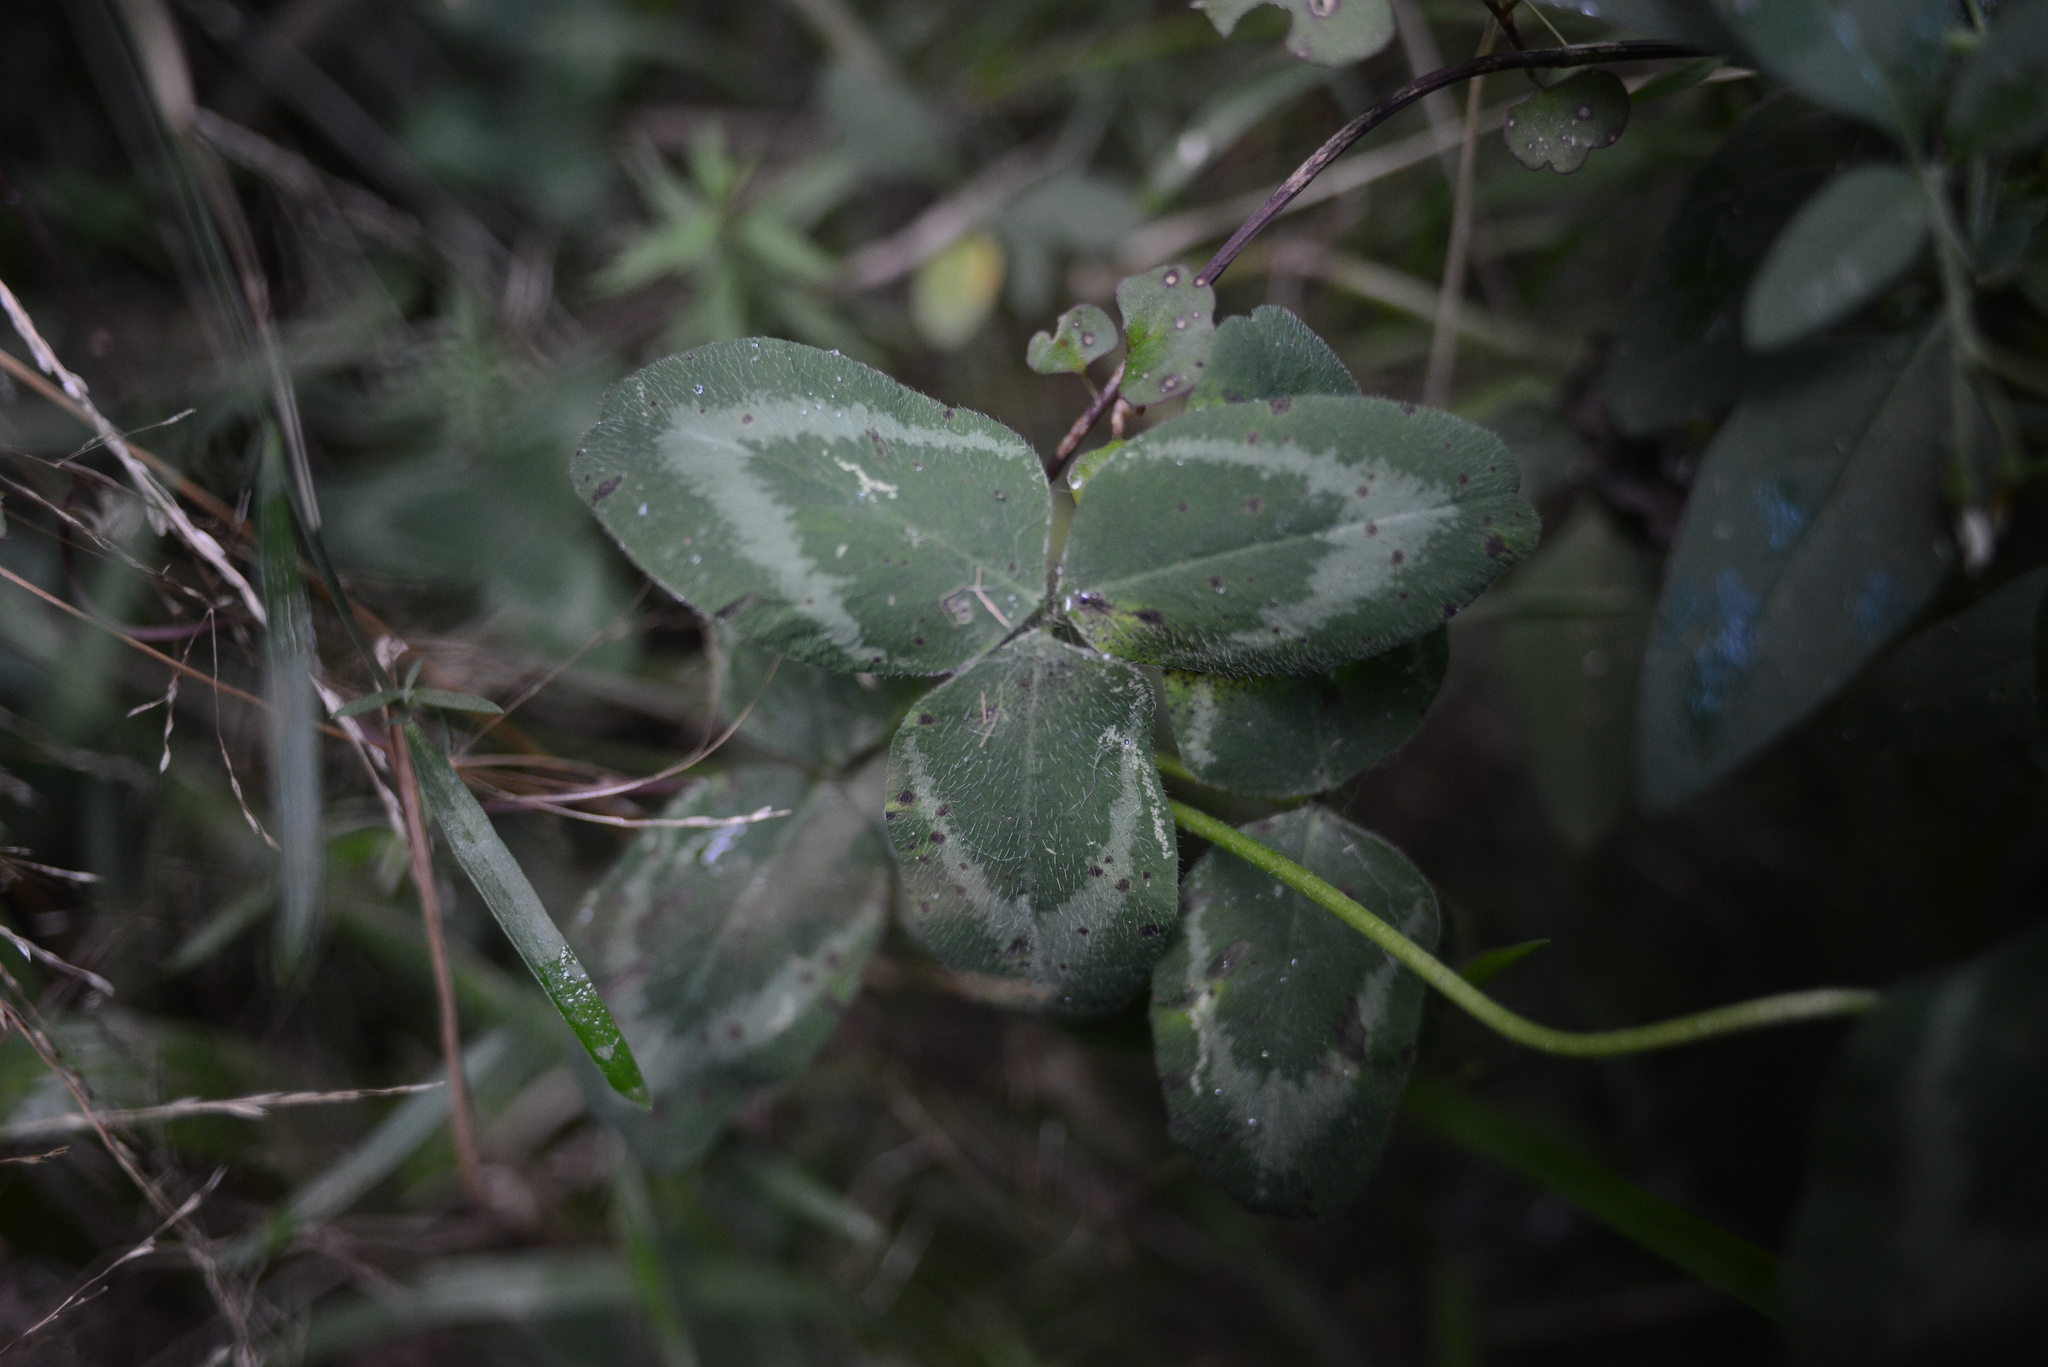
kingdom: Plantae
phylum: Tracheophyta
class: Magnoliopsida
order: Fabales
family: Fabaceae
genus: Trifolium
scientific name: Trifolium pratense
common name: Red clover
